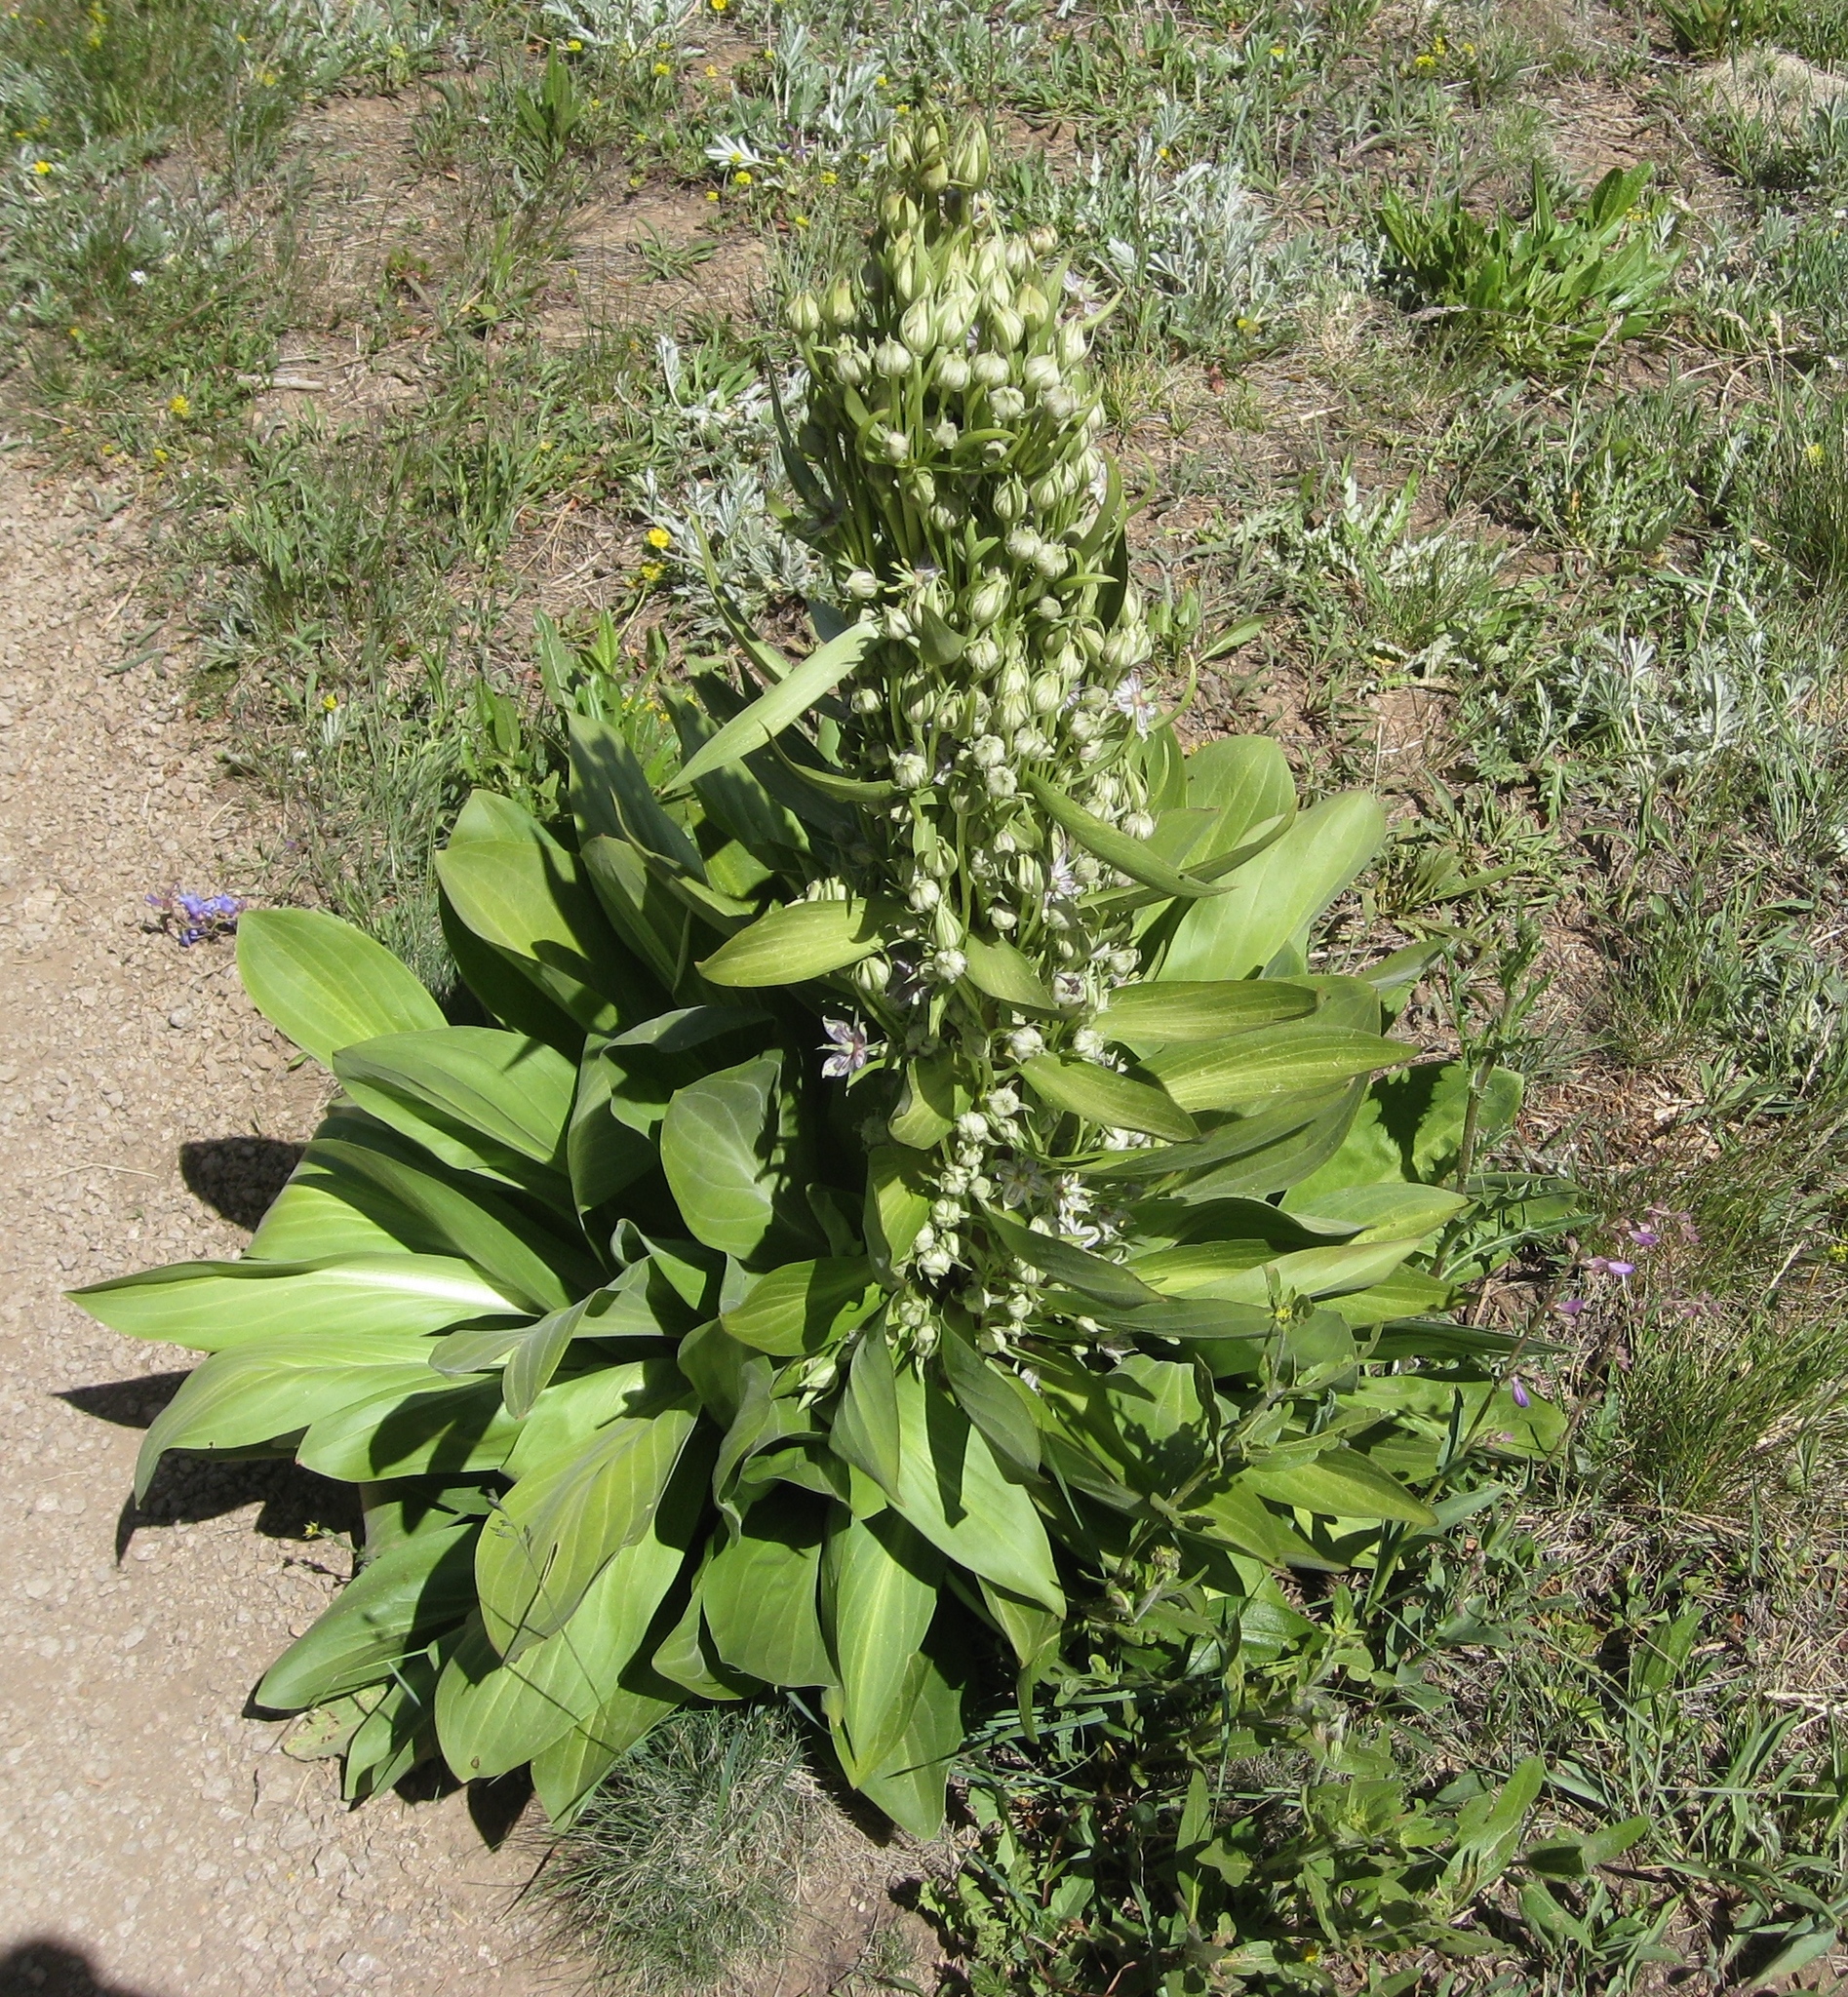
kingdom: Plantae
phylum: Tracheophyta
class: Magnoliopsida
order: Gentianales
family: Gentianaceae
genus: Frasera
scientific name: Frasera speciosa
